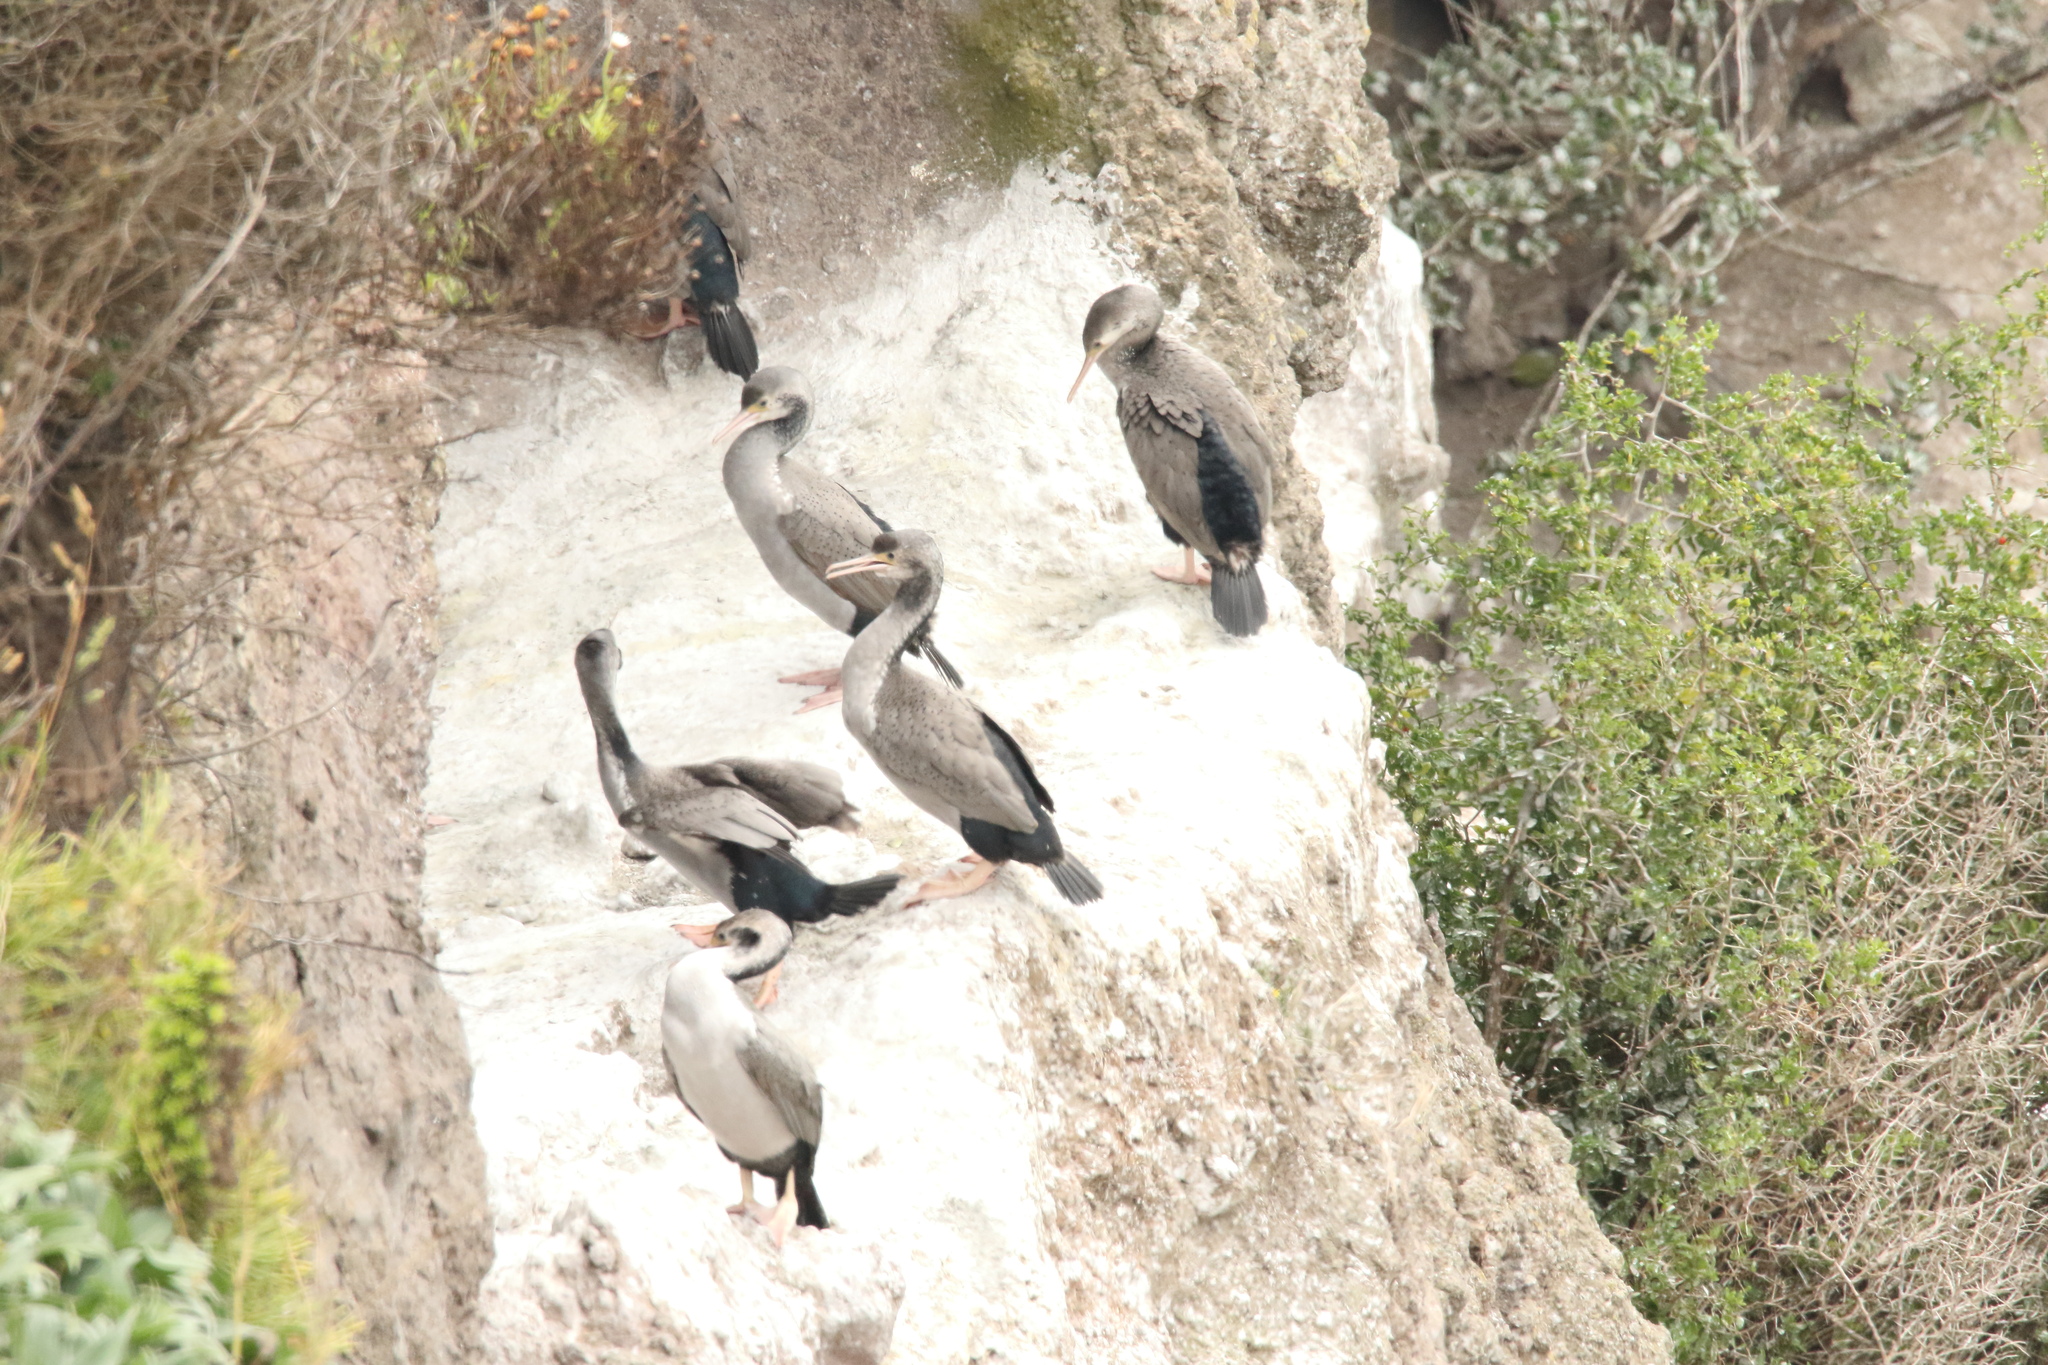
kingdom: Animalia
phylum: Chordata
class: Aves
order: Suliformes
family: Phalacrocoracidae
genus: Phalacrocorax
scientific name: Phalacrocorax punctatus
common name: Spotted shag
